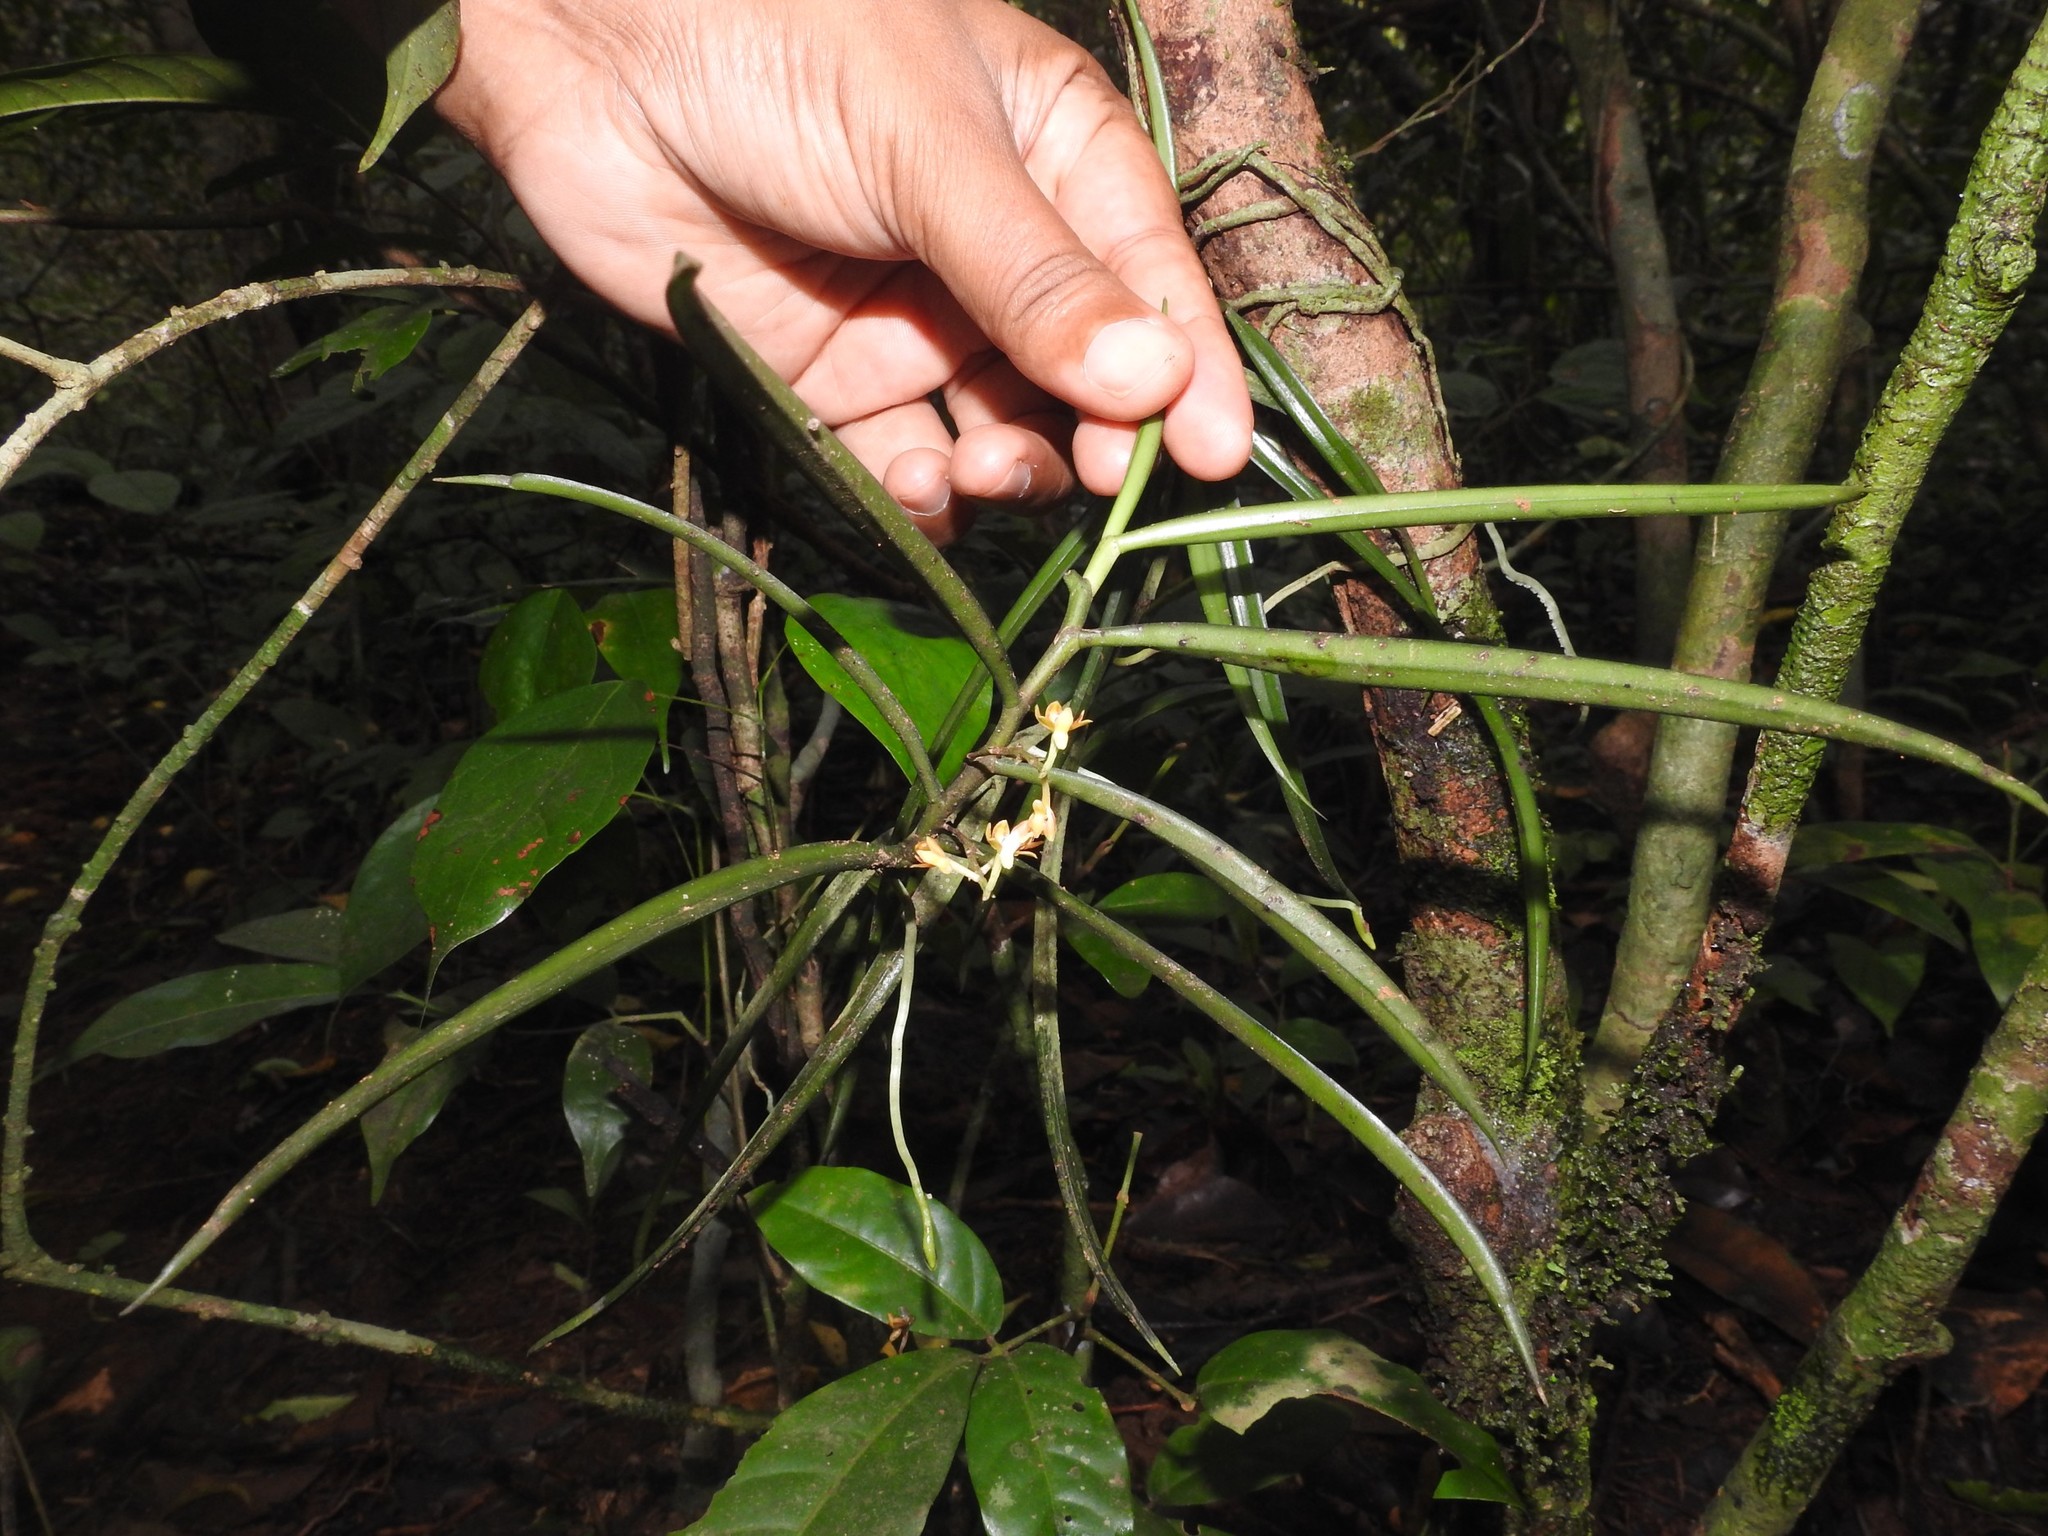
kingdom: Plantae
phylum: Tracheophyta
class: Liliopsida
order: Asparagales
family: Orchidaceae
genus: Cleisostoma
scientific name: Cleisostoma tenuifolium
